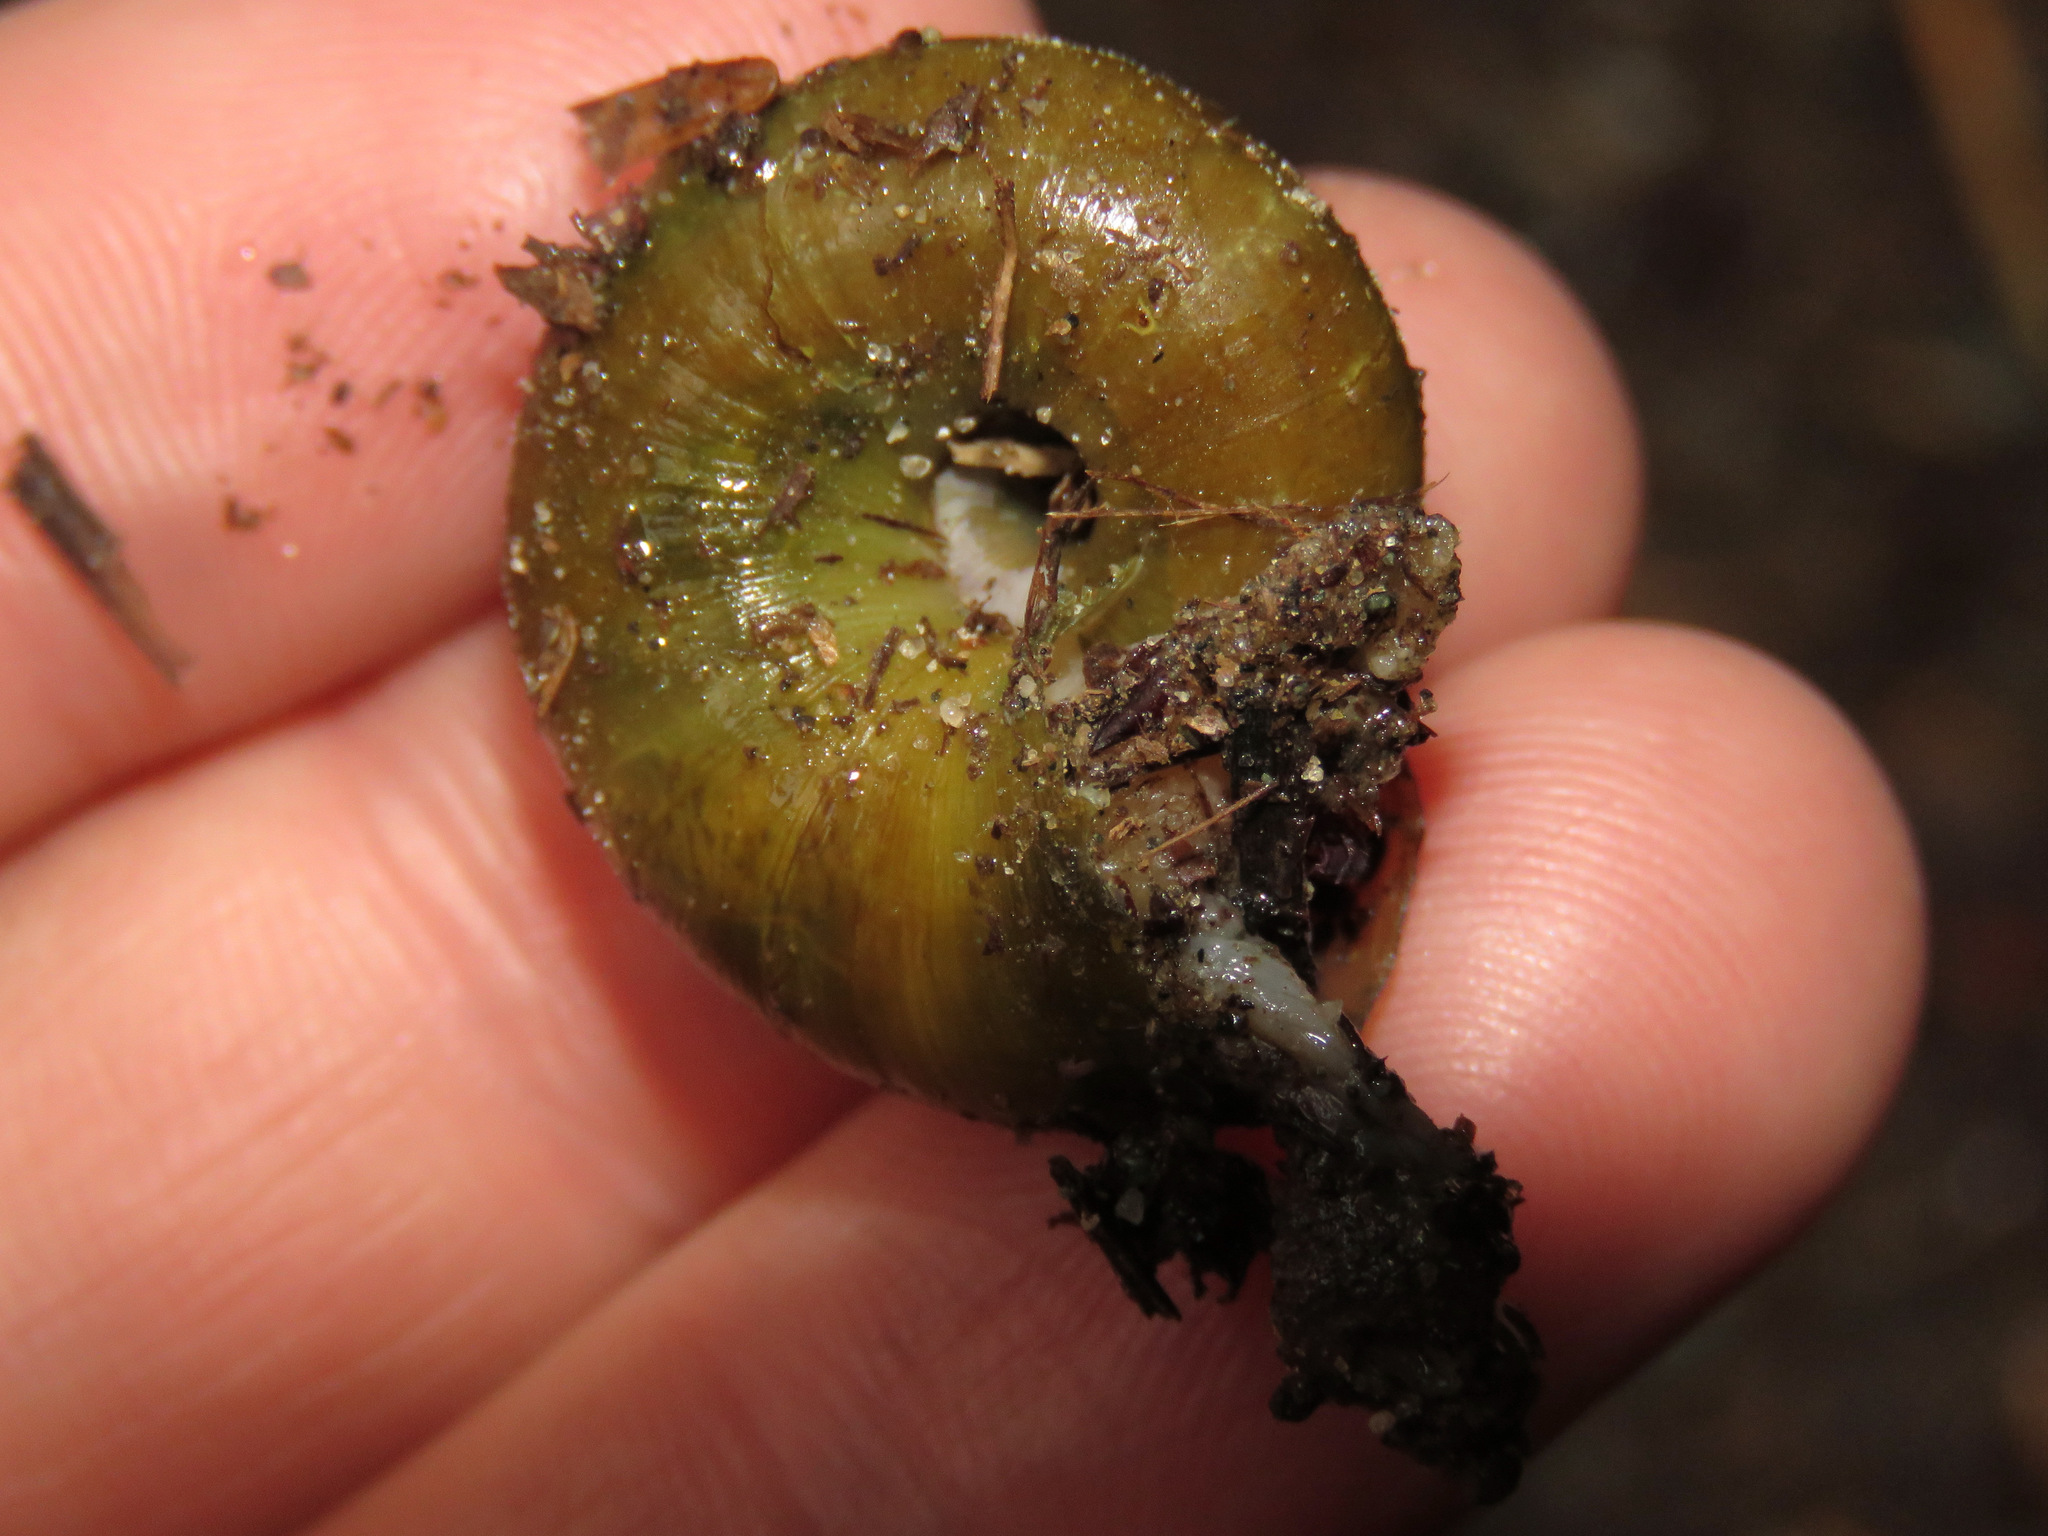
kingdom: Animalia
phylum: Mollusca
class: Gastropoda
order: Stylommatophora
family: Haplotrematidae
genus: Haplotrema
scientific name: Haplotrema vancouverense
